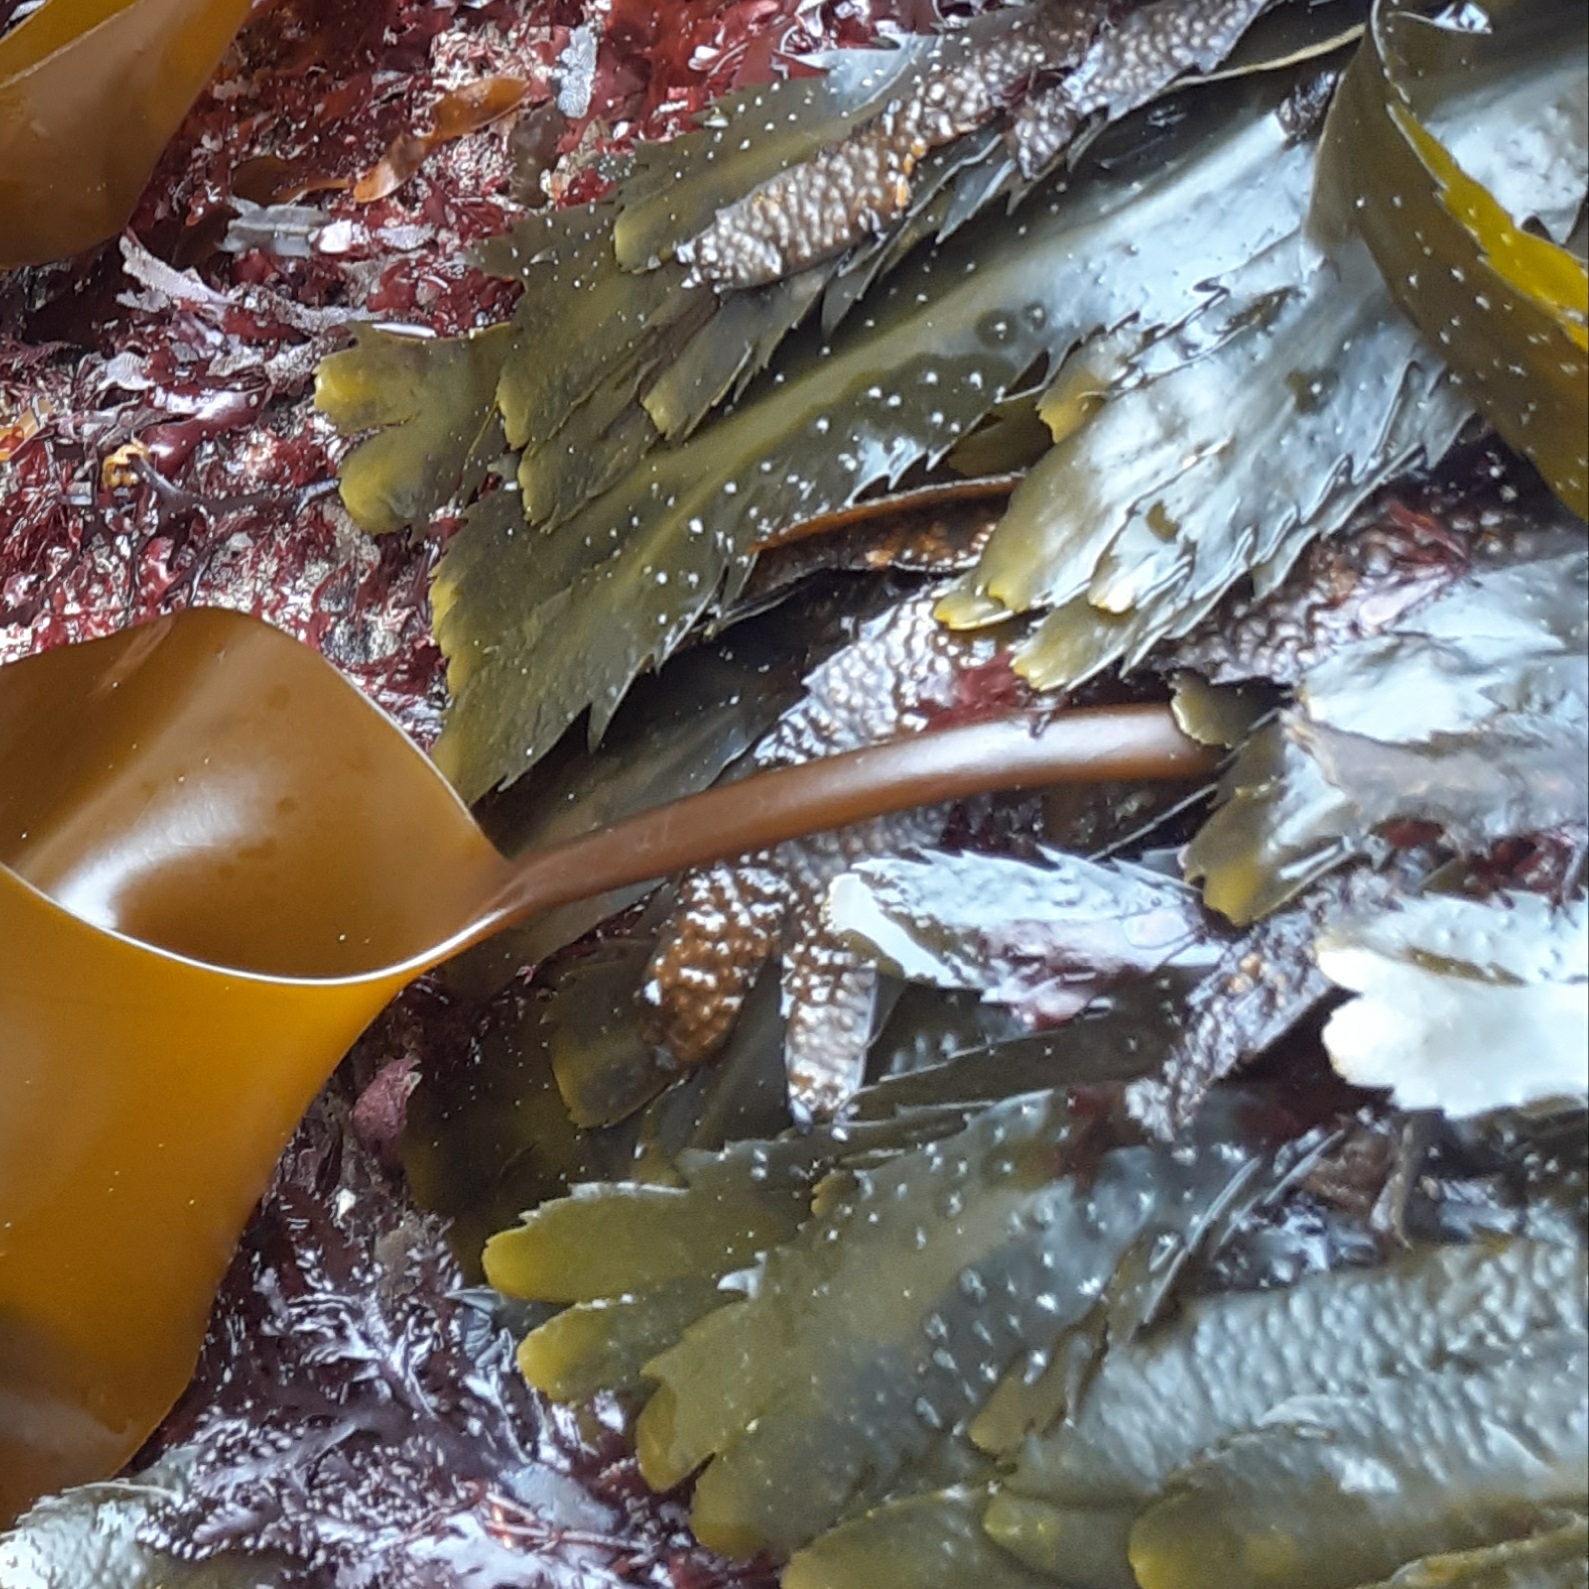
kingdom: Chromista
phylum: Ochrophyta
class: Phaeophyceae
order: Fucales
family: Fucaceae
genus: Fucus
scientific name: Fucus serratus
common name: Toothed wrack
